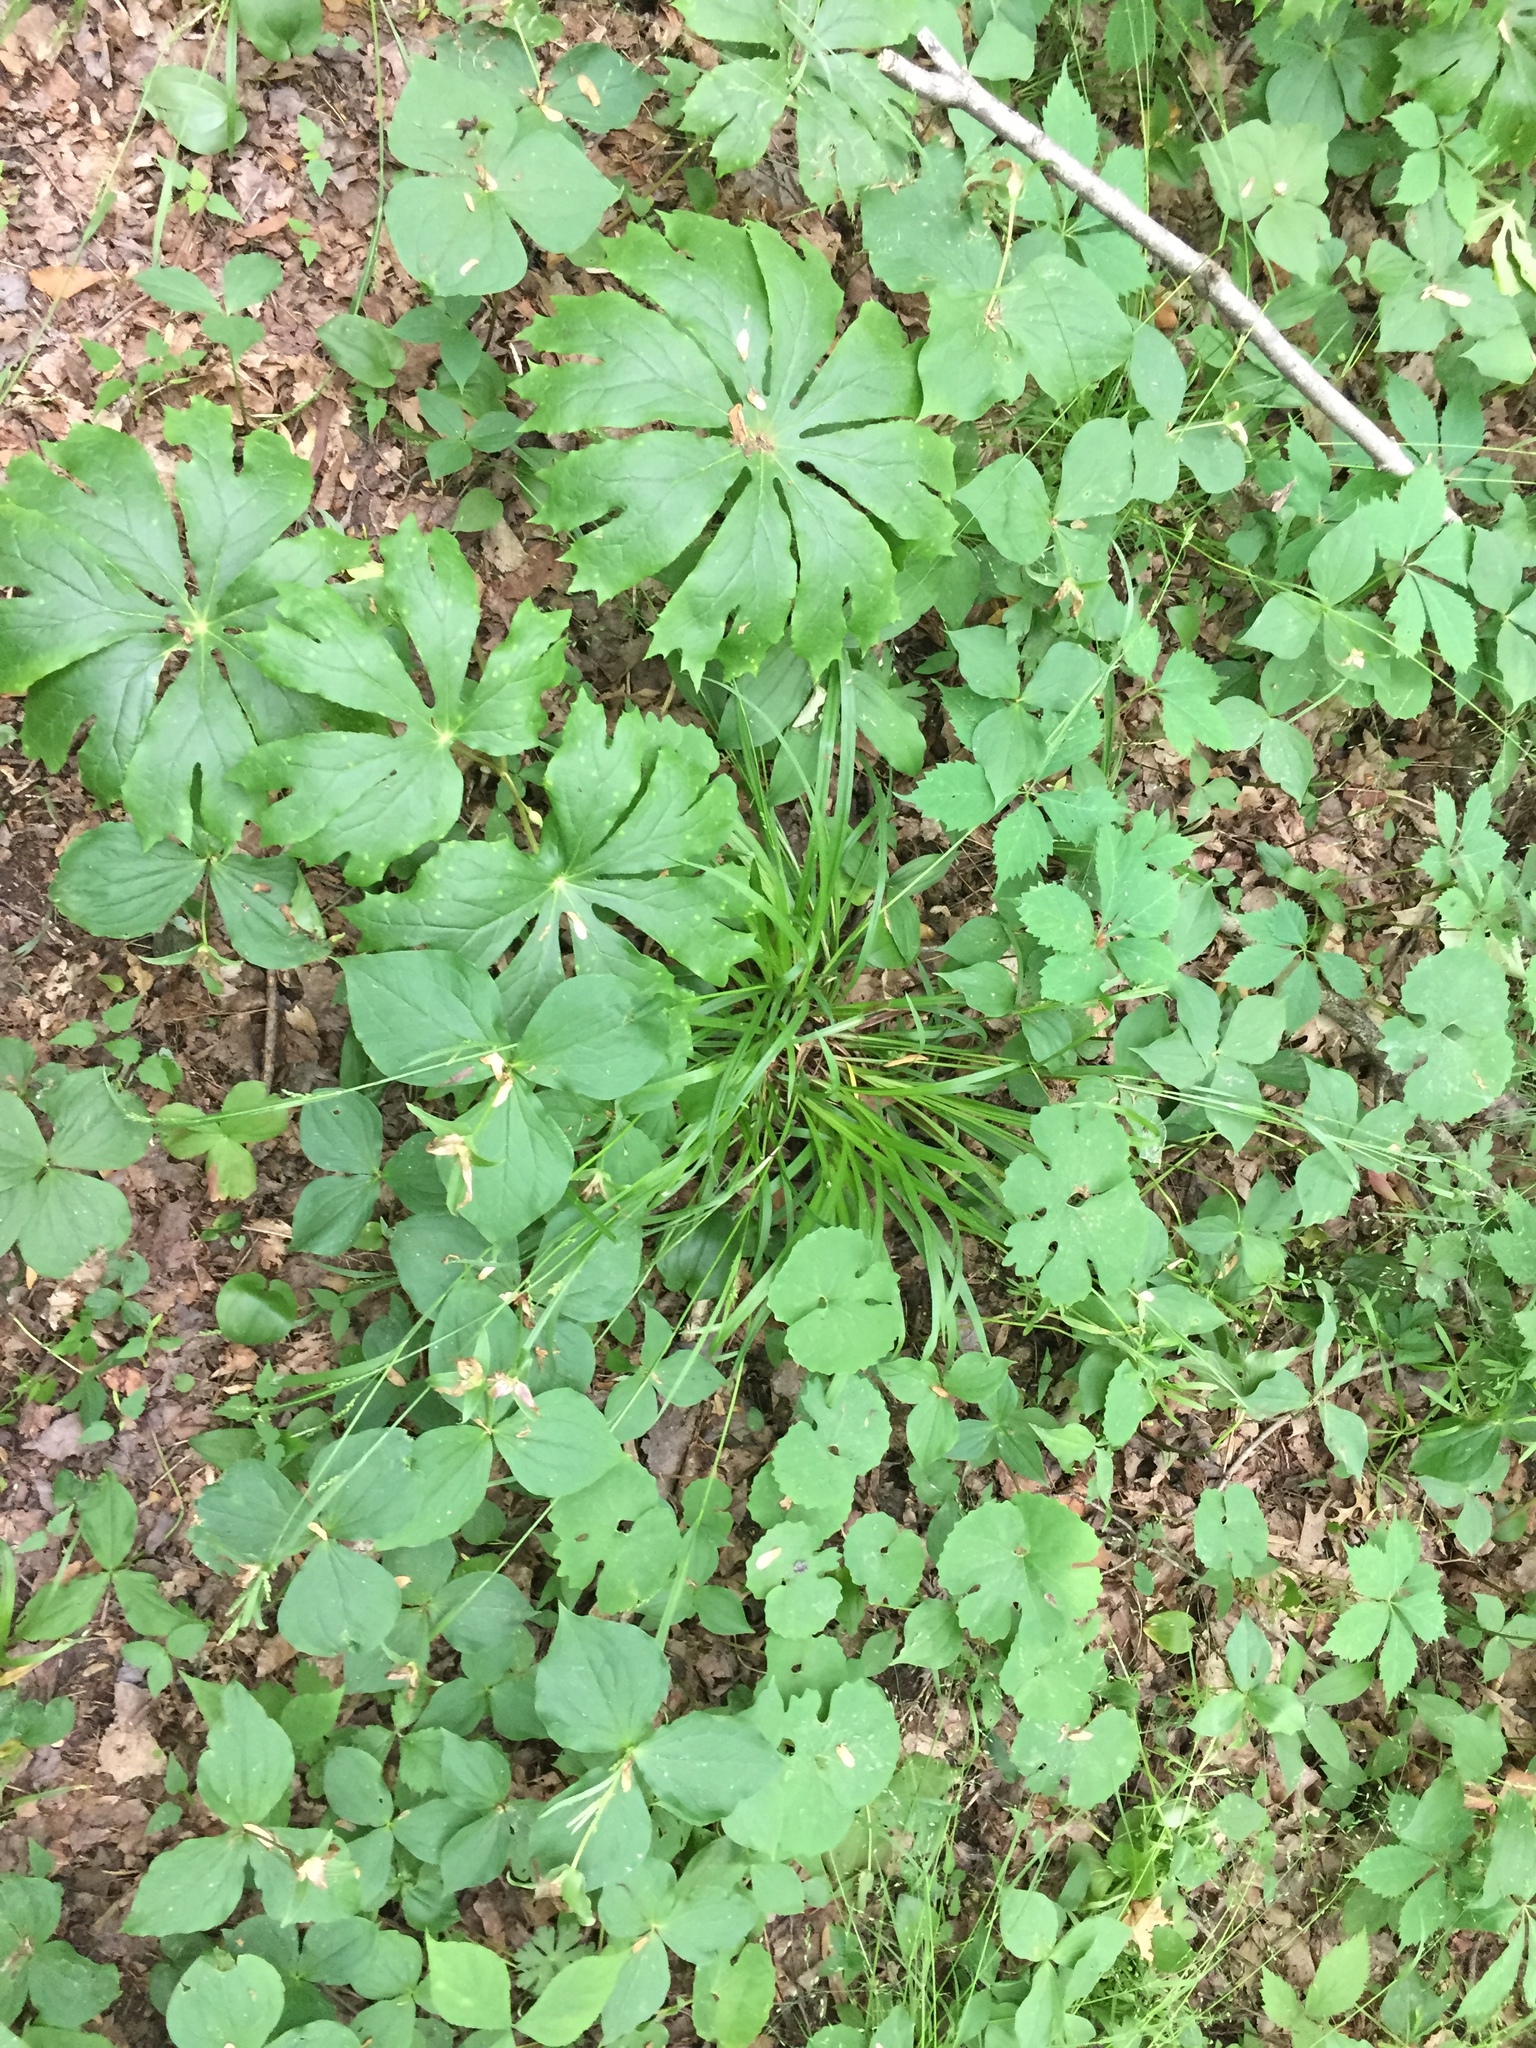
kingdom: Plantae
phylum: Tracheophyta
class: Liliopsida
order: Poales
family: Cyperaceae
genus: Carex
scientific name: Carex laxiflora
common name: Beech wood sedge
